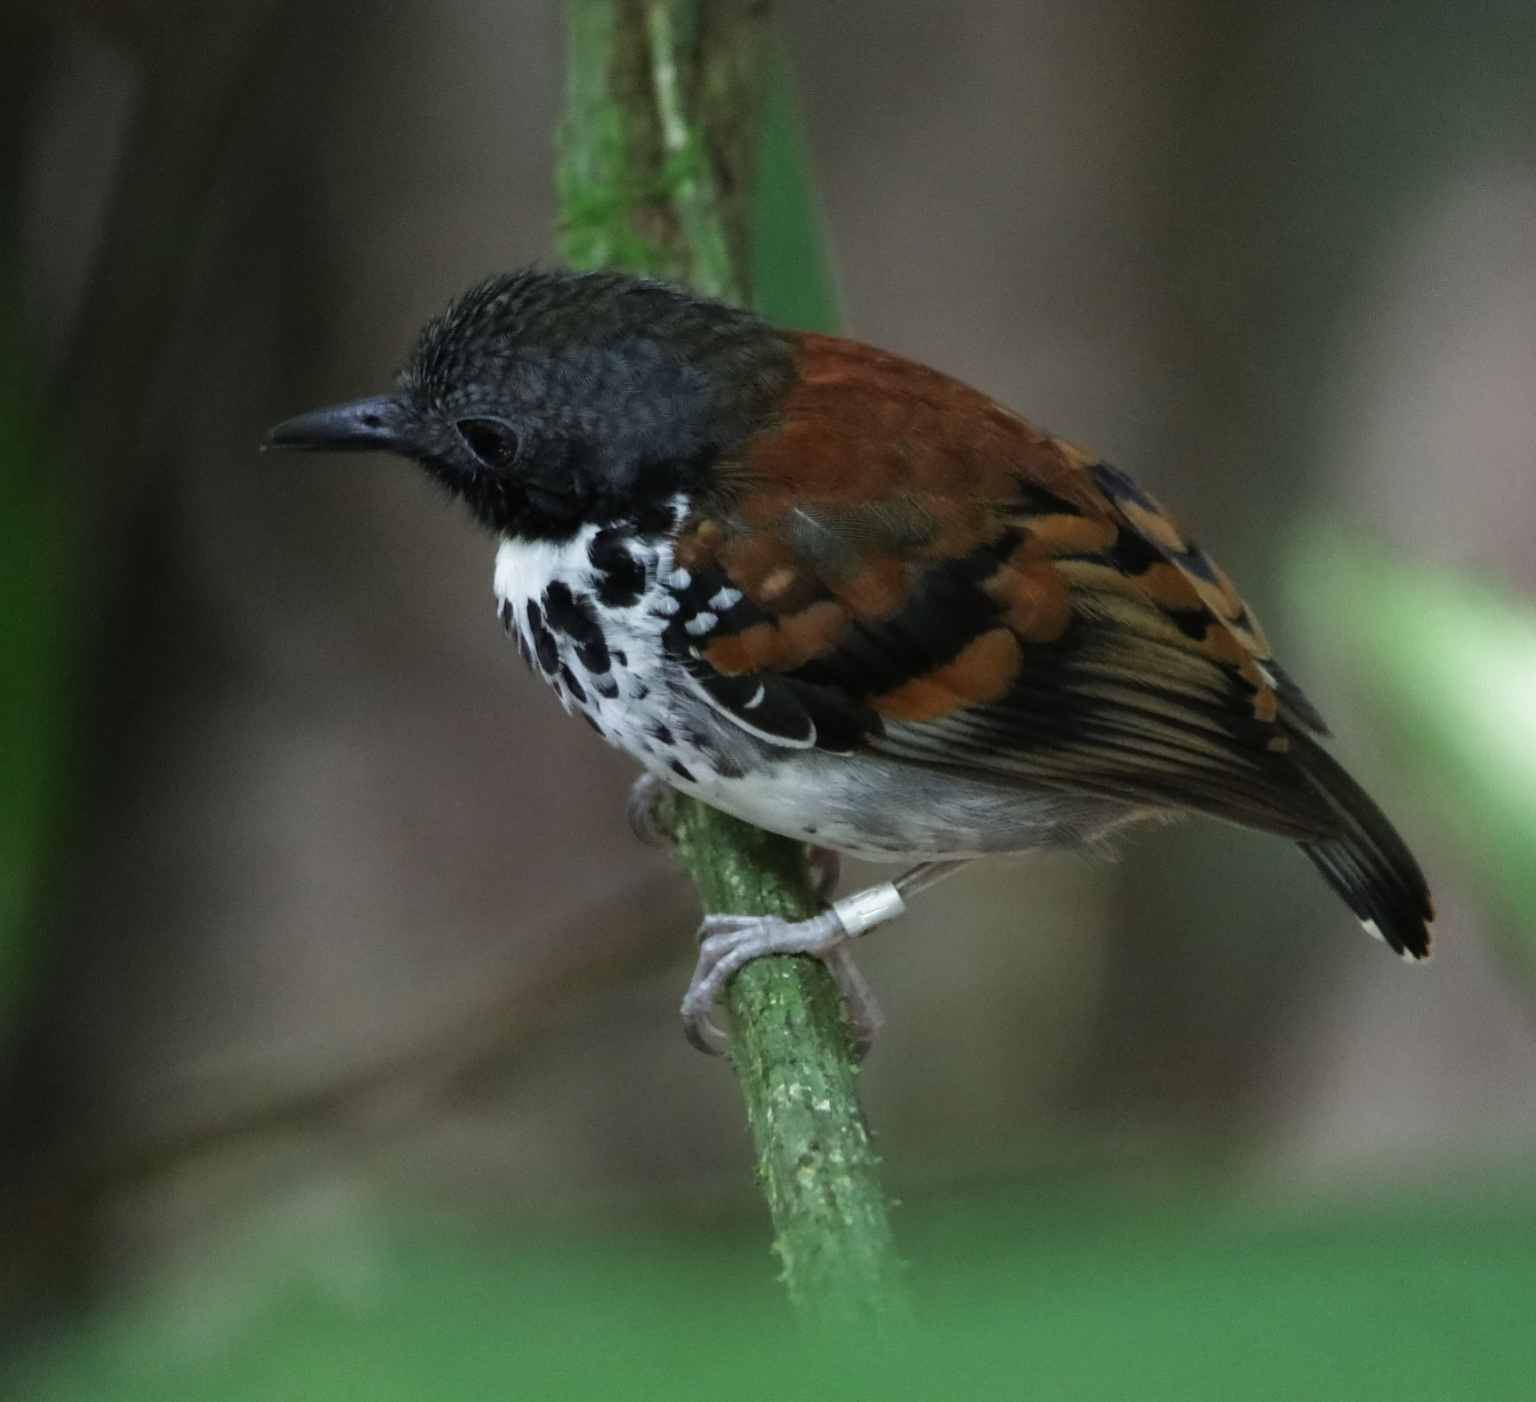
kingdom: Animalia
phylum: Chordata
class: Aves
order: Passeriformes
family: Thamnophilidae
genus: Hylophylax
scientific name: Hylophylax naevioides
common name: Spotted antbird
